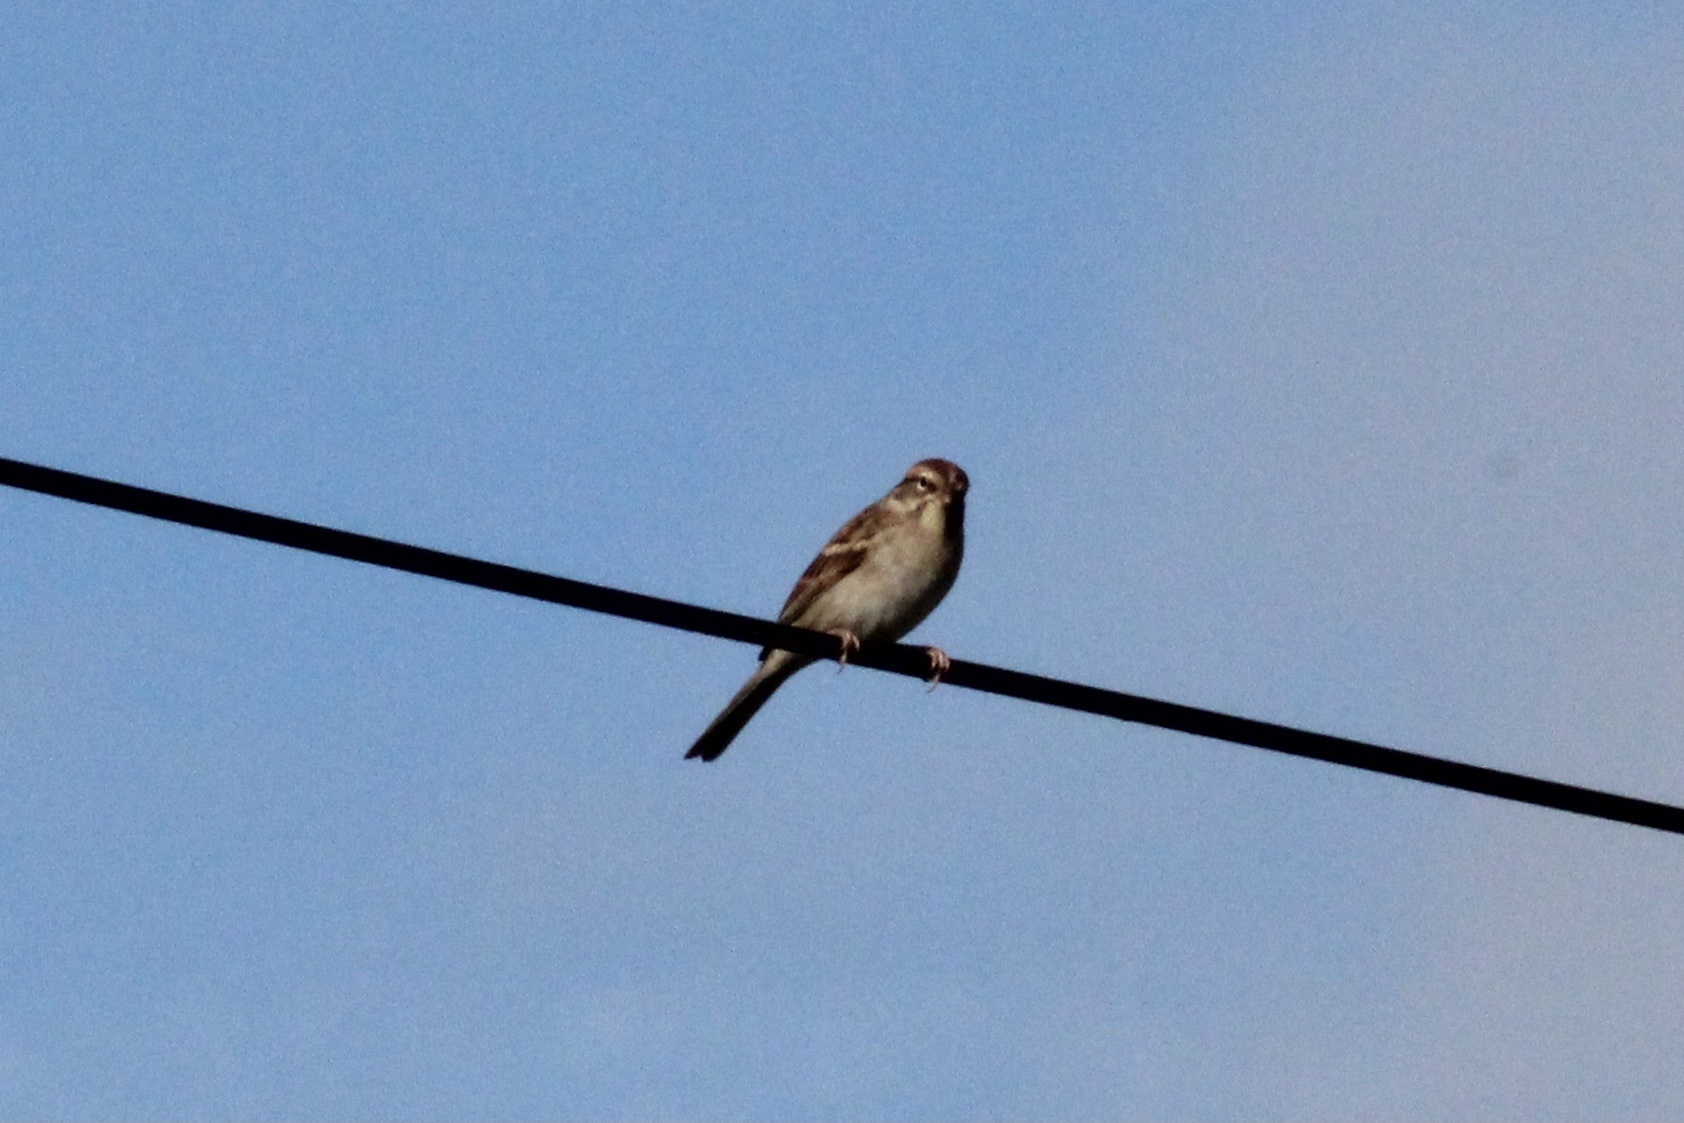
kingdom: Animalia
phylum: Chordata
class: Aves
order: Passeriformes
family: Passerellidae
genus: Spizella
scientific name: Spizella passerina
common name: Chipping sparrow
